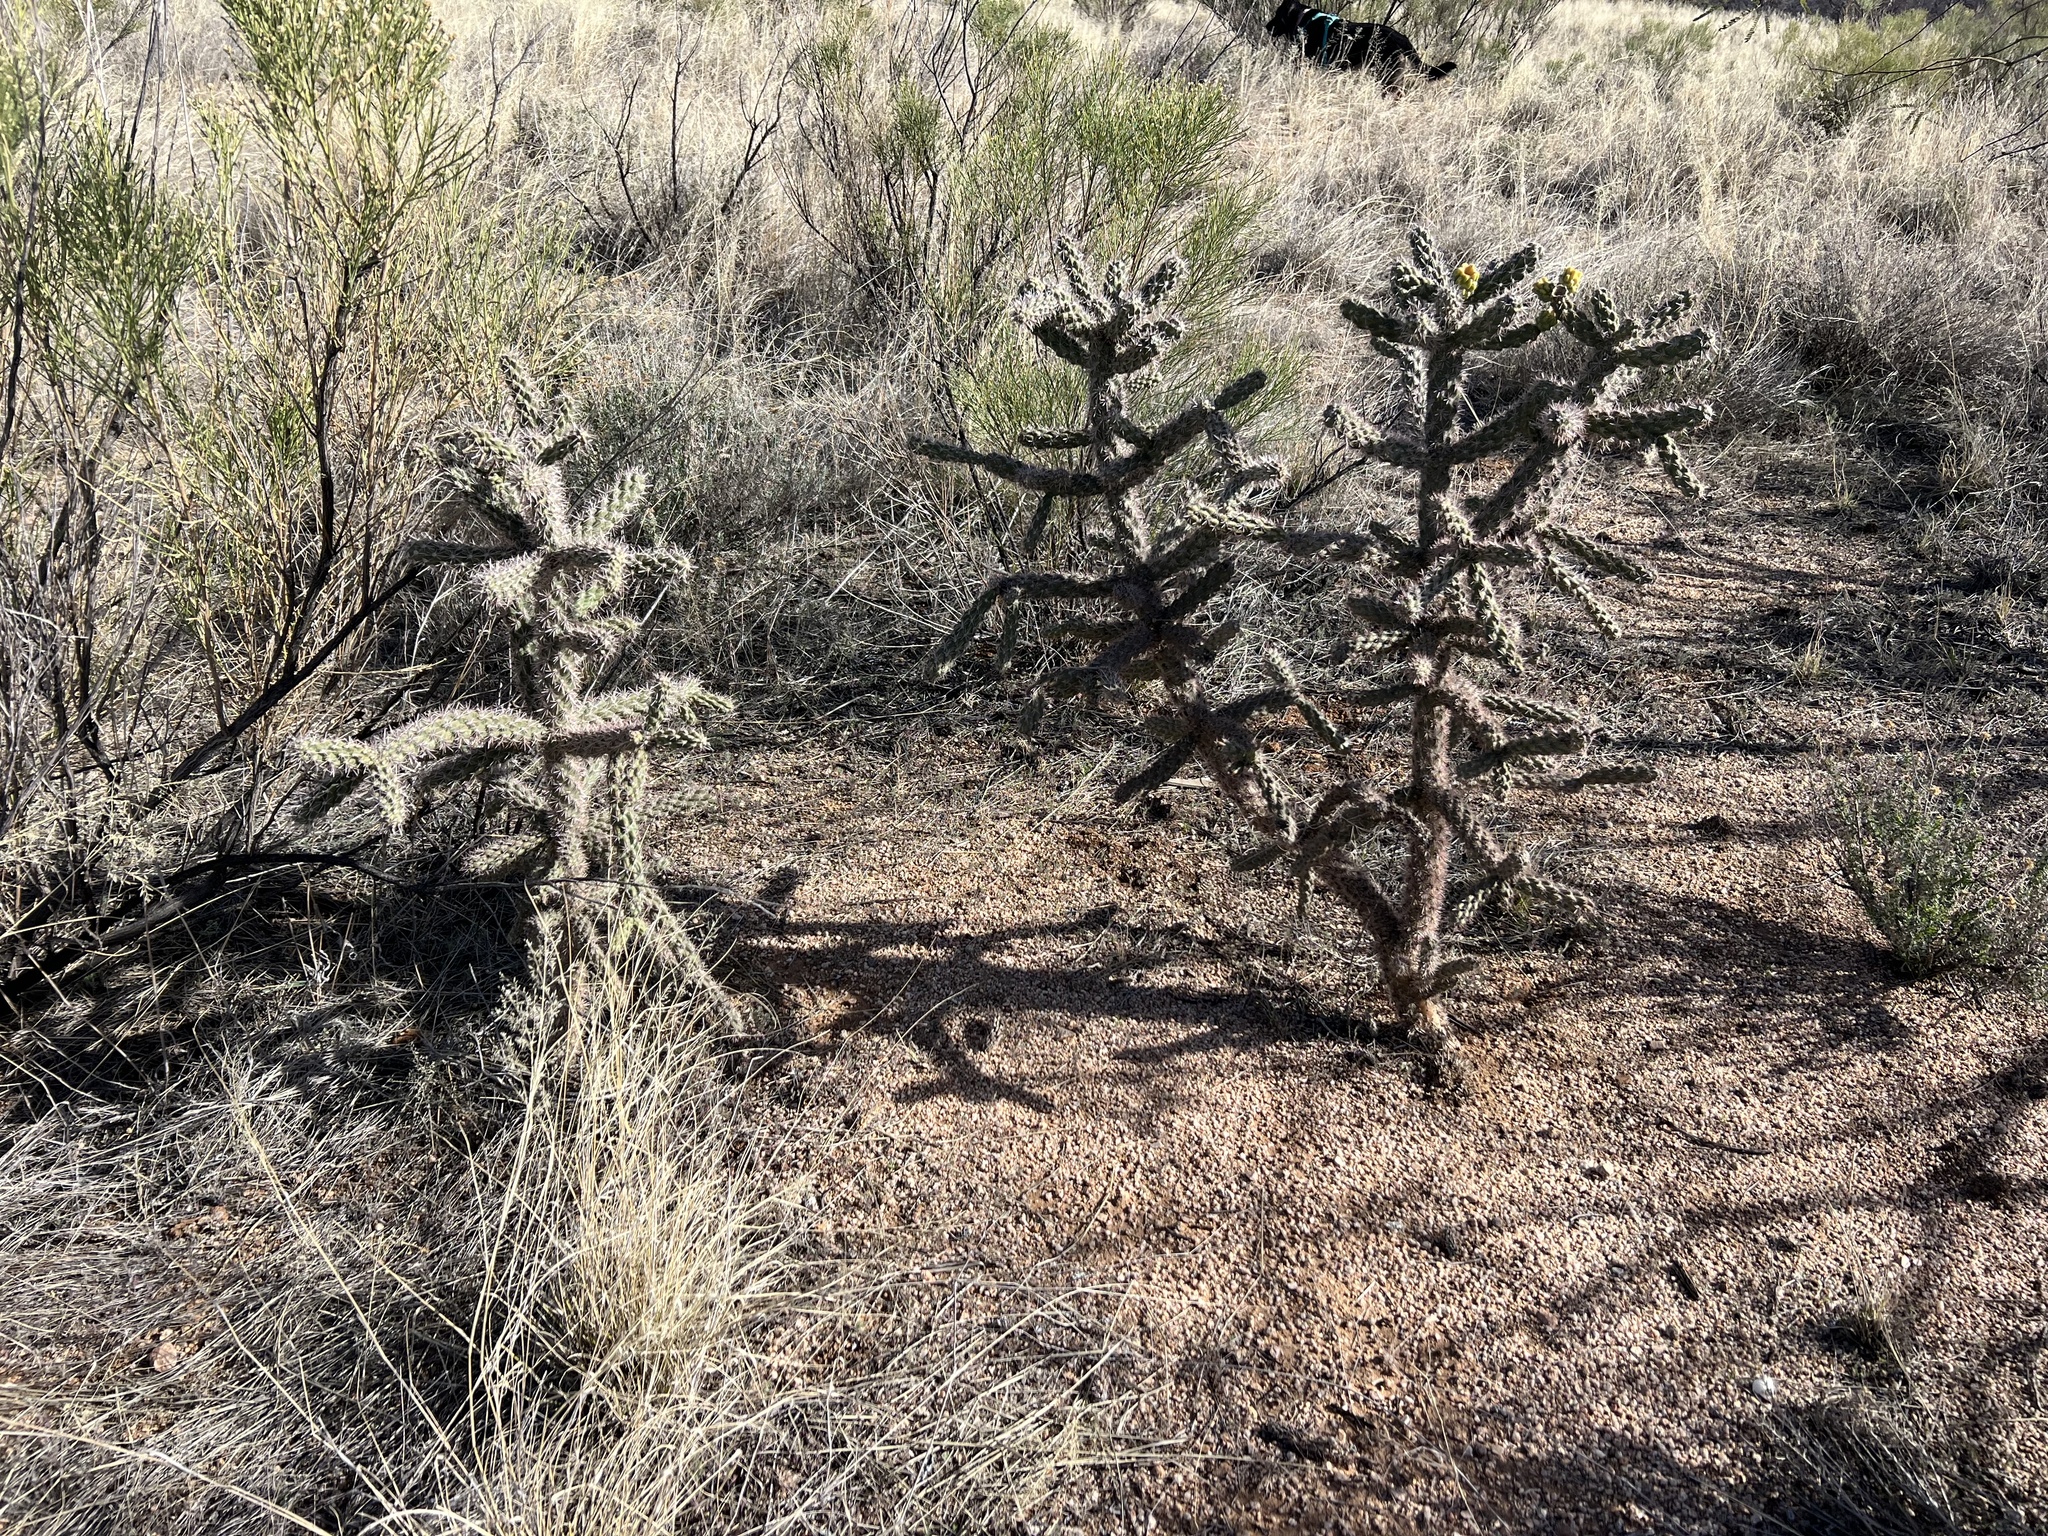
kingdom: Plantae
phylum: Tracheophyta
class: Magnoliopsida
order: Caryophyllales
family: Cactaceae
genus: Cylindropuntia
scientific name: Cylindropuntia imbricata
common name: Candelabrum cactus
